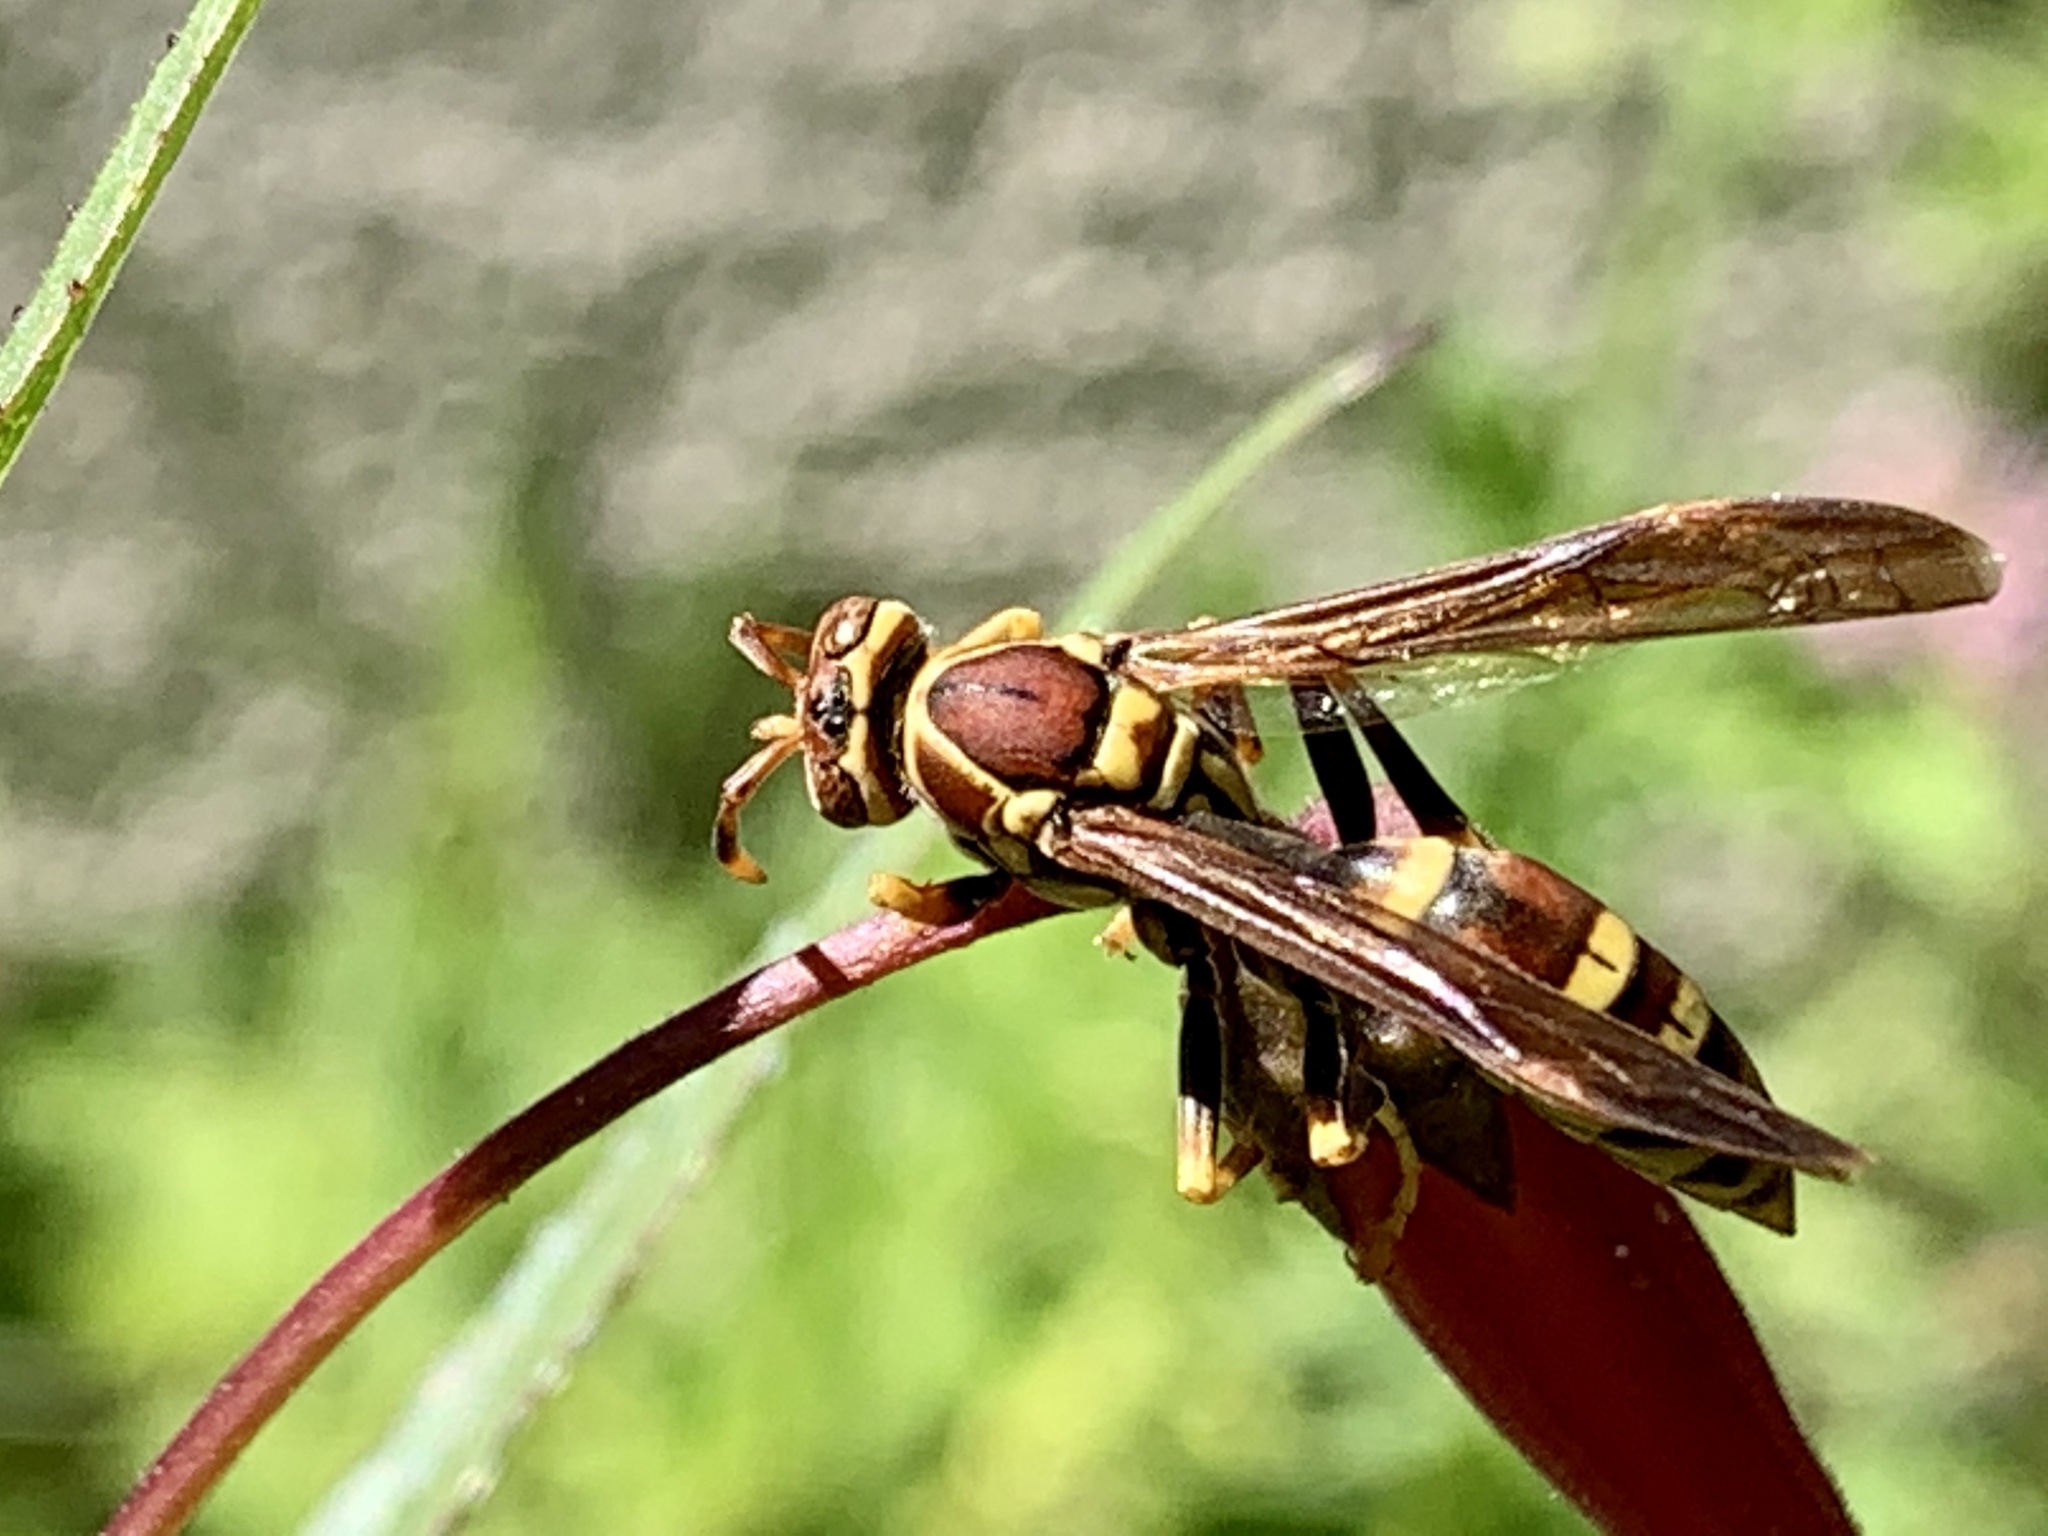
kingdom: Animalia
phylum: Arthropoda
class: Insecta
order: Hymenoptera
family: Eumenidae
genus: Polistes
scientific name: Polistes exclamans
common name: Paper wasp
